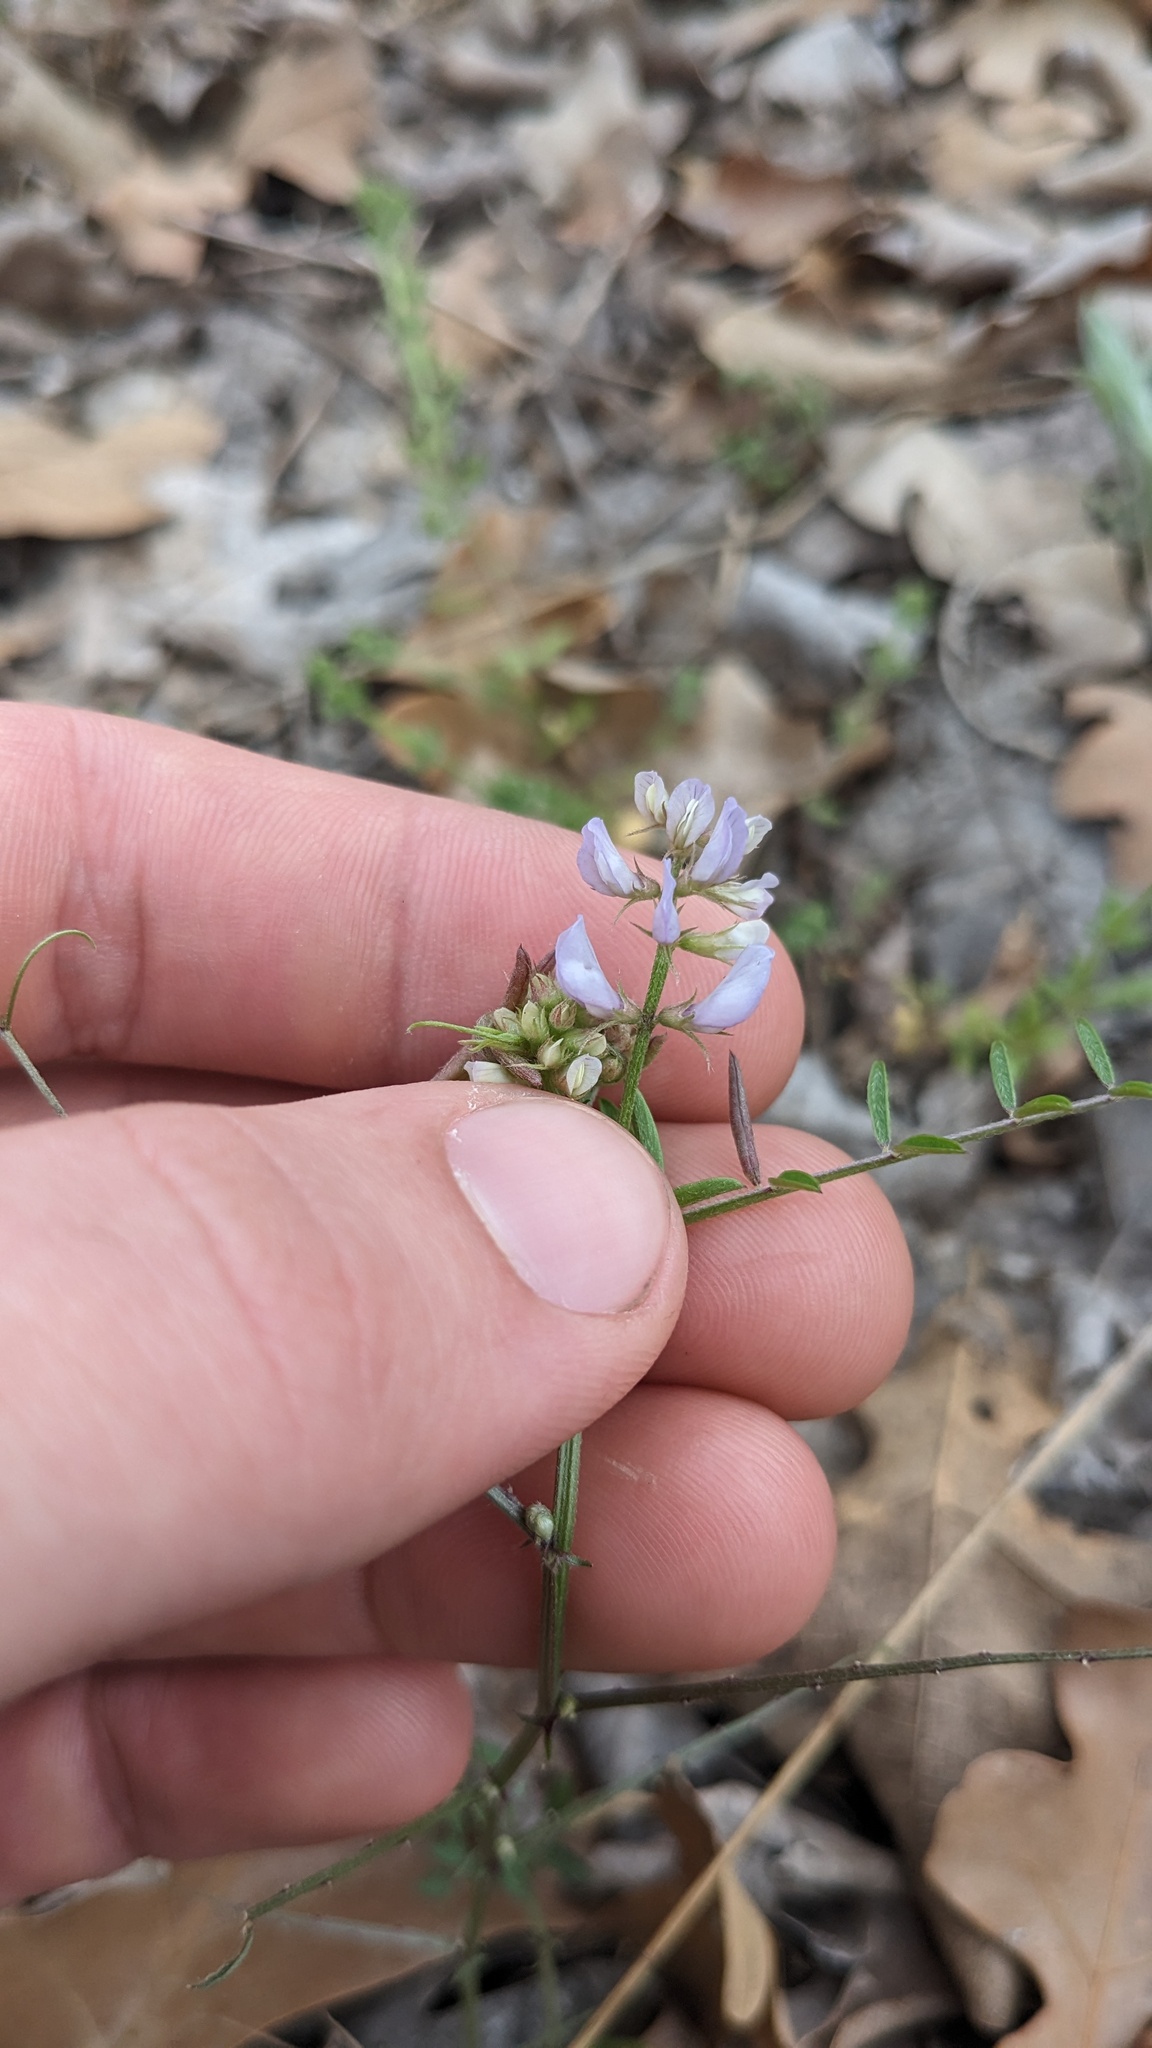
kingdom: Plantae
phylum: Tracheophyta
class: Magnoliopsida
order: Fabales
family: Fabaceae
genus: Vicia
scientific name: Vicia ludoviciana
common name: Louisiana vetch
